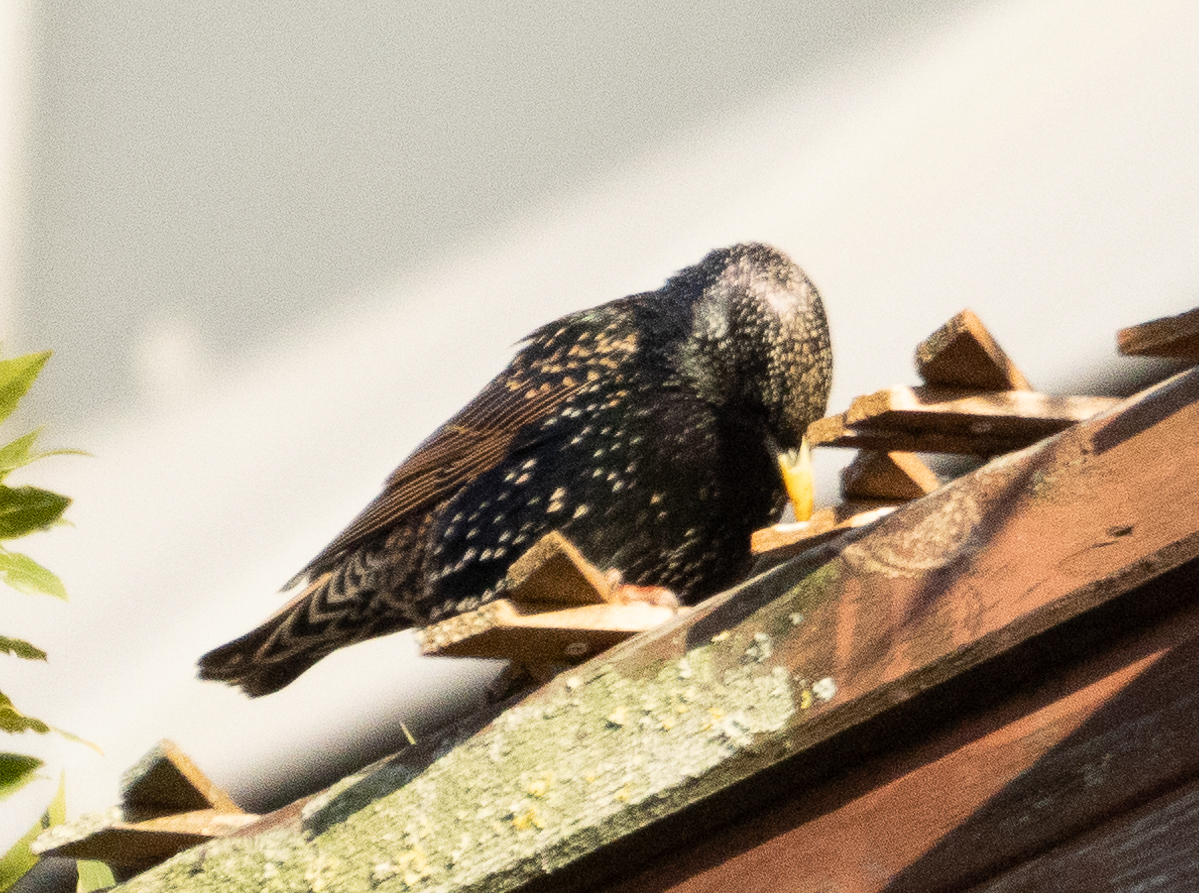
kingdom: Animalia
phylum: Chordata
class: Aves
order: Passeriformes
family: Sturnidae
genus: Sturnus
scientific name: Sturnus vulgaris
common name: Common starling
